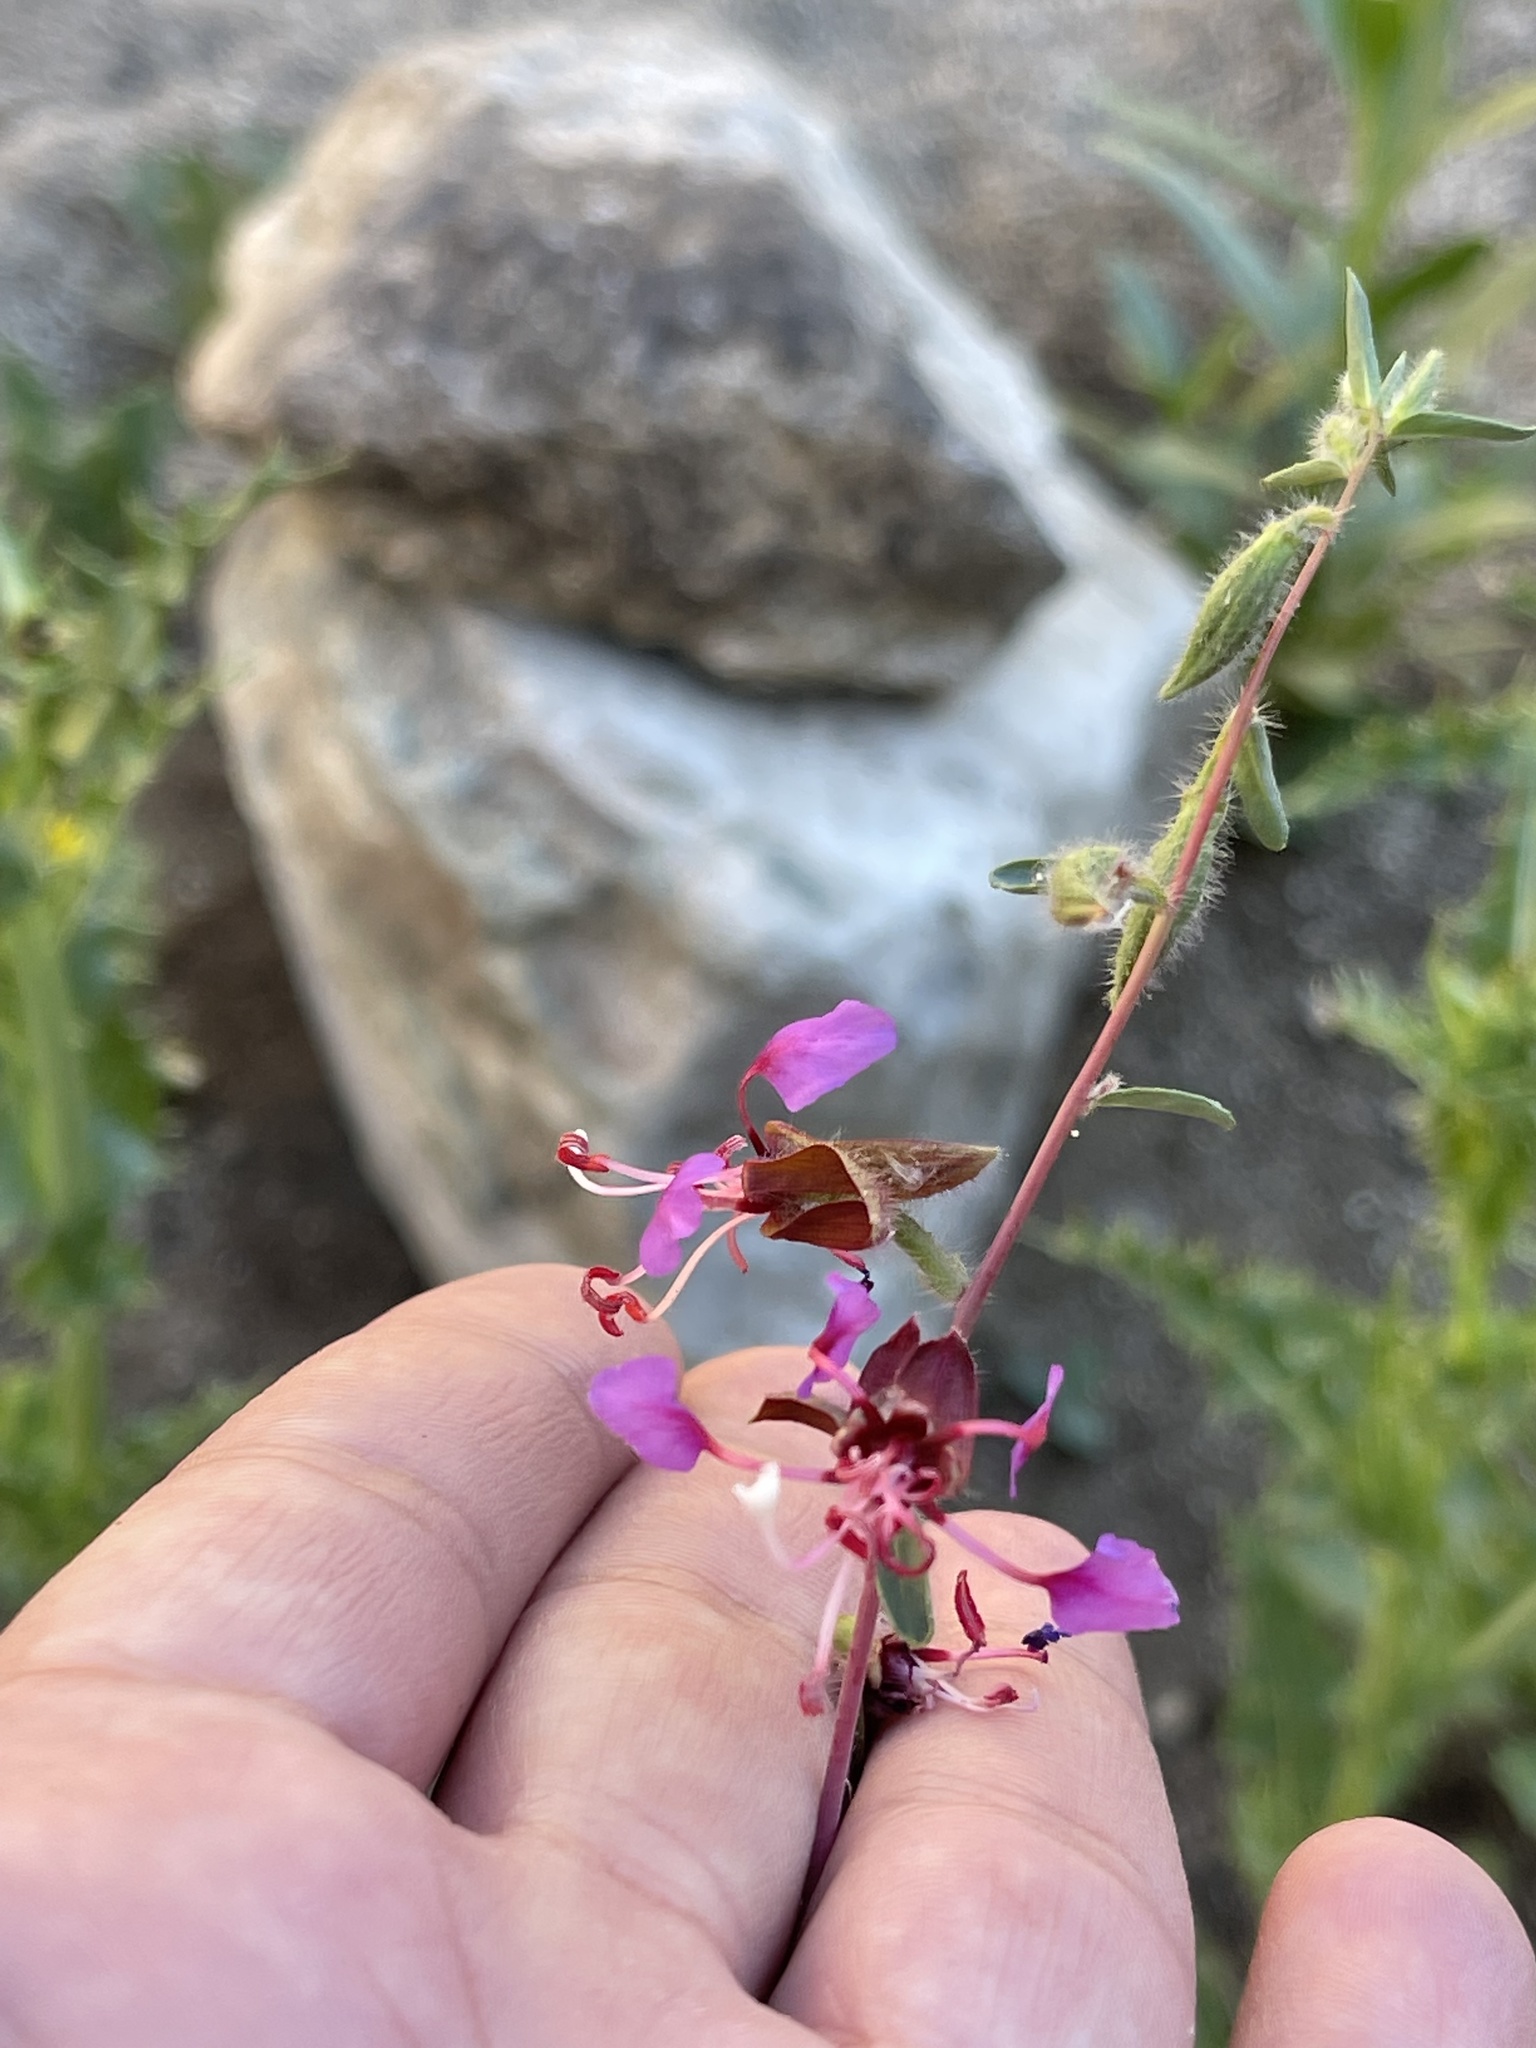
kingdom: Plantae
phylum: Tracheophyta
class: Magnoliopsida
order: Myrtales
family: Onagraceae
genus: Clarkia
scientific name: Clarkia unguiculata
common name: Clarkia
